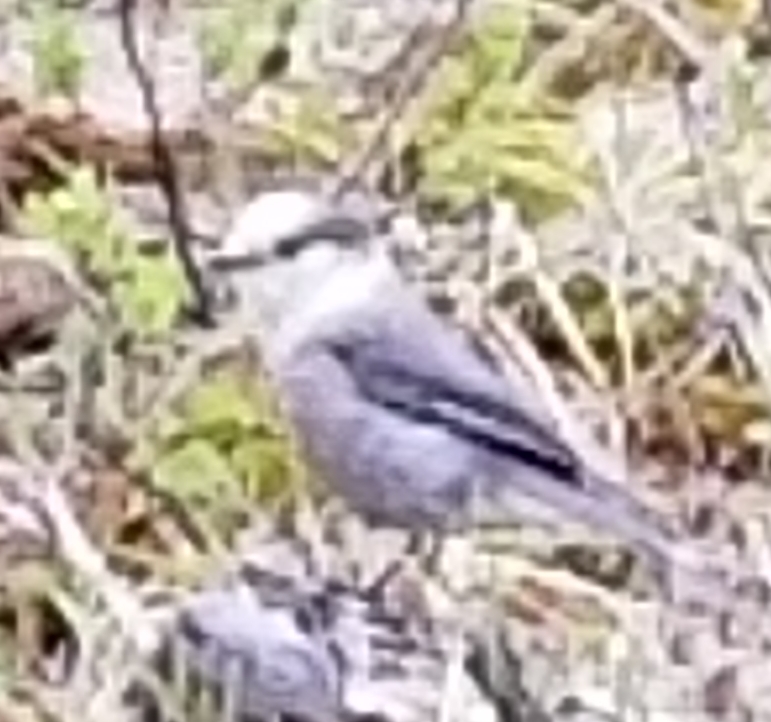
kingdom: Animalia
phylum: Chordata
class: Aves
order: Passeriformes
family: Corvidae
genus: Perisoreus
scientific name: Perisoreus canadensis
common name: Gray jay
